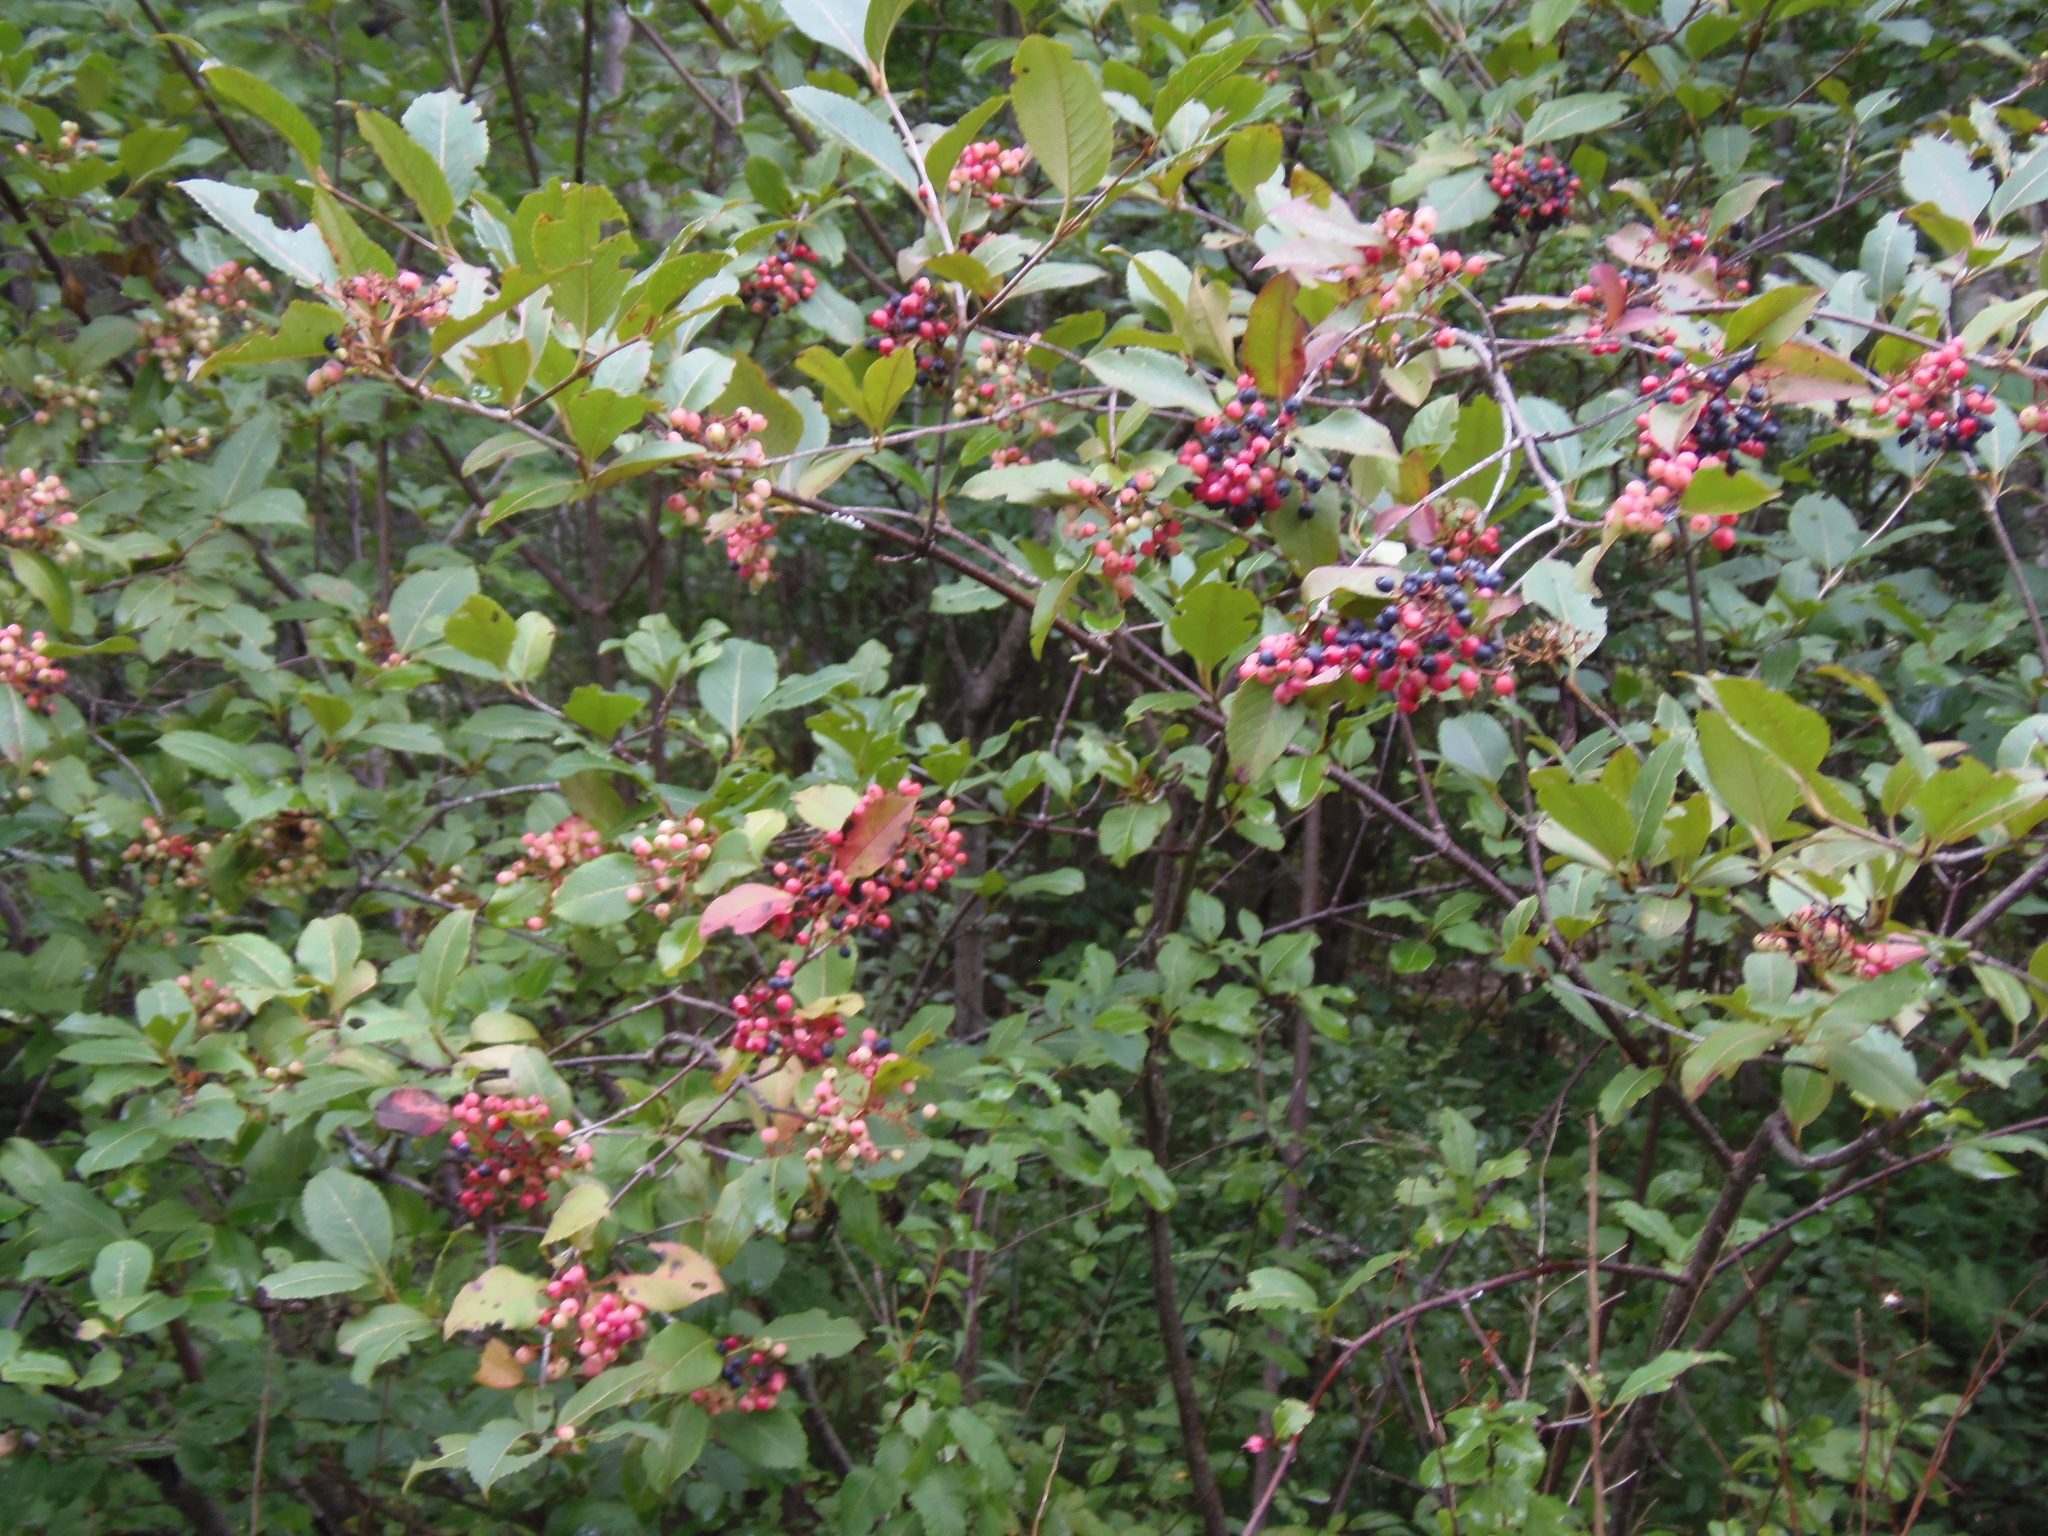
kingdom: Plantae
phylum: Tracheophyta
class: Magnoliopsida
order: Dipsacales
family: Viburnaceae
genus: Viburnum
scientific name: Viburnum cassinoides
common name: Swamp haw
